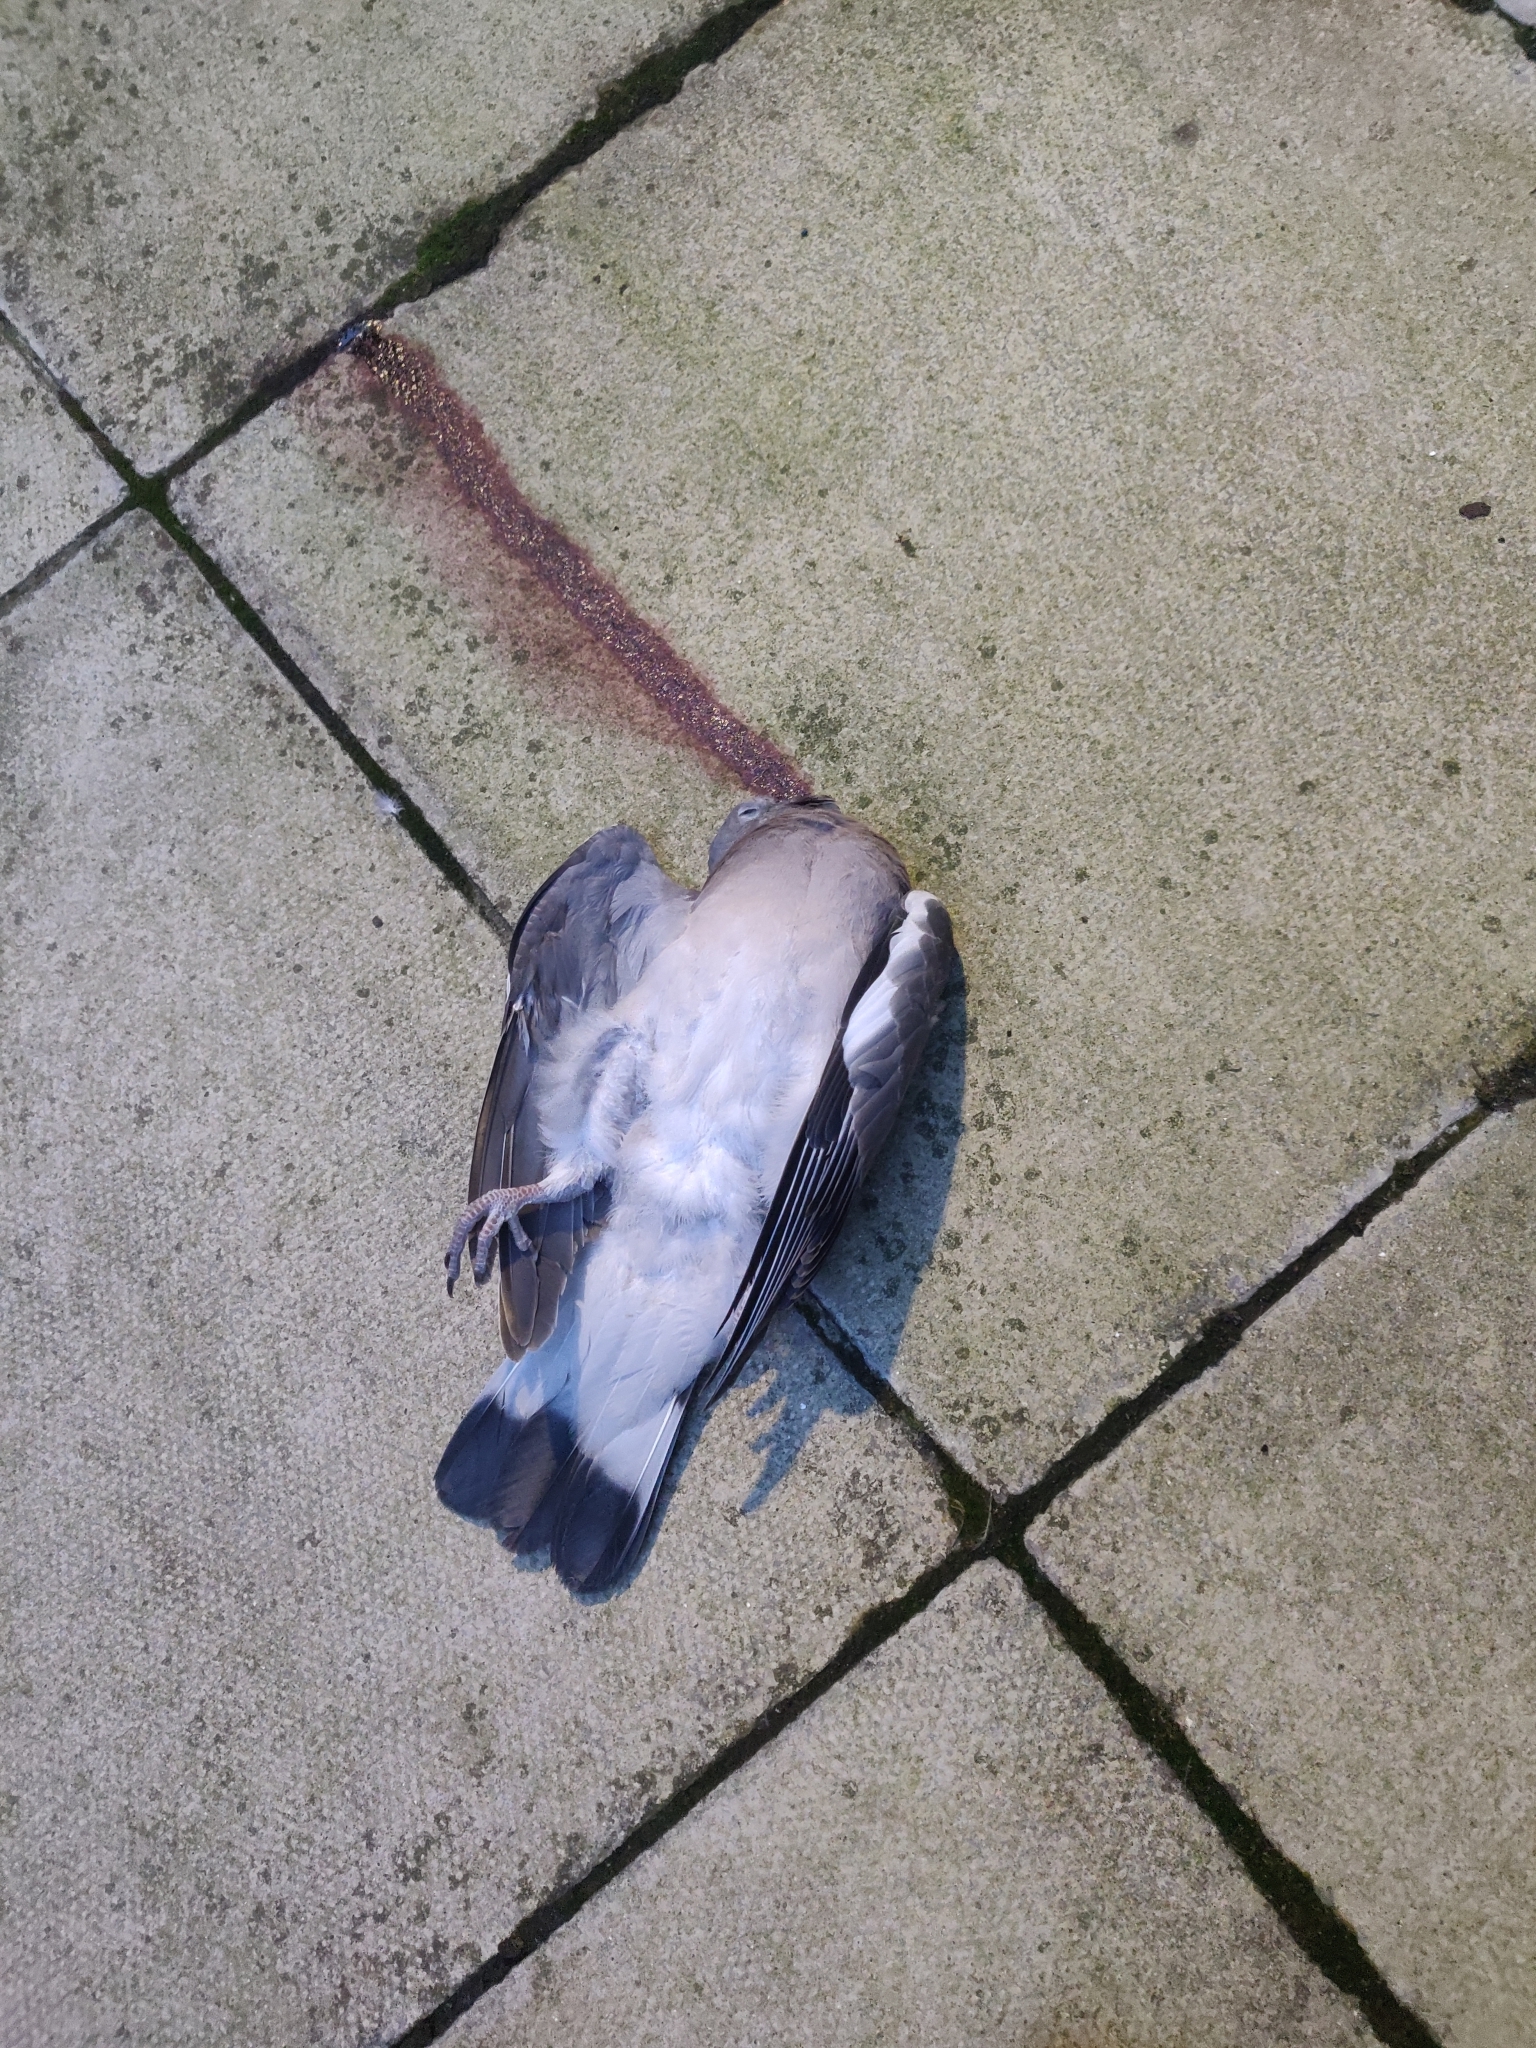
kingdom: Animalia
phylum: Chordata
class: Aves
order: Columbiformes
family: Columbidae
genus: Columba
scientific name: Columba palumbus
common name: Common wood pigeon
